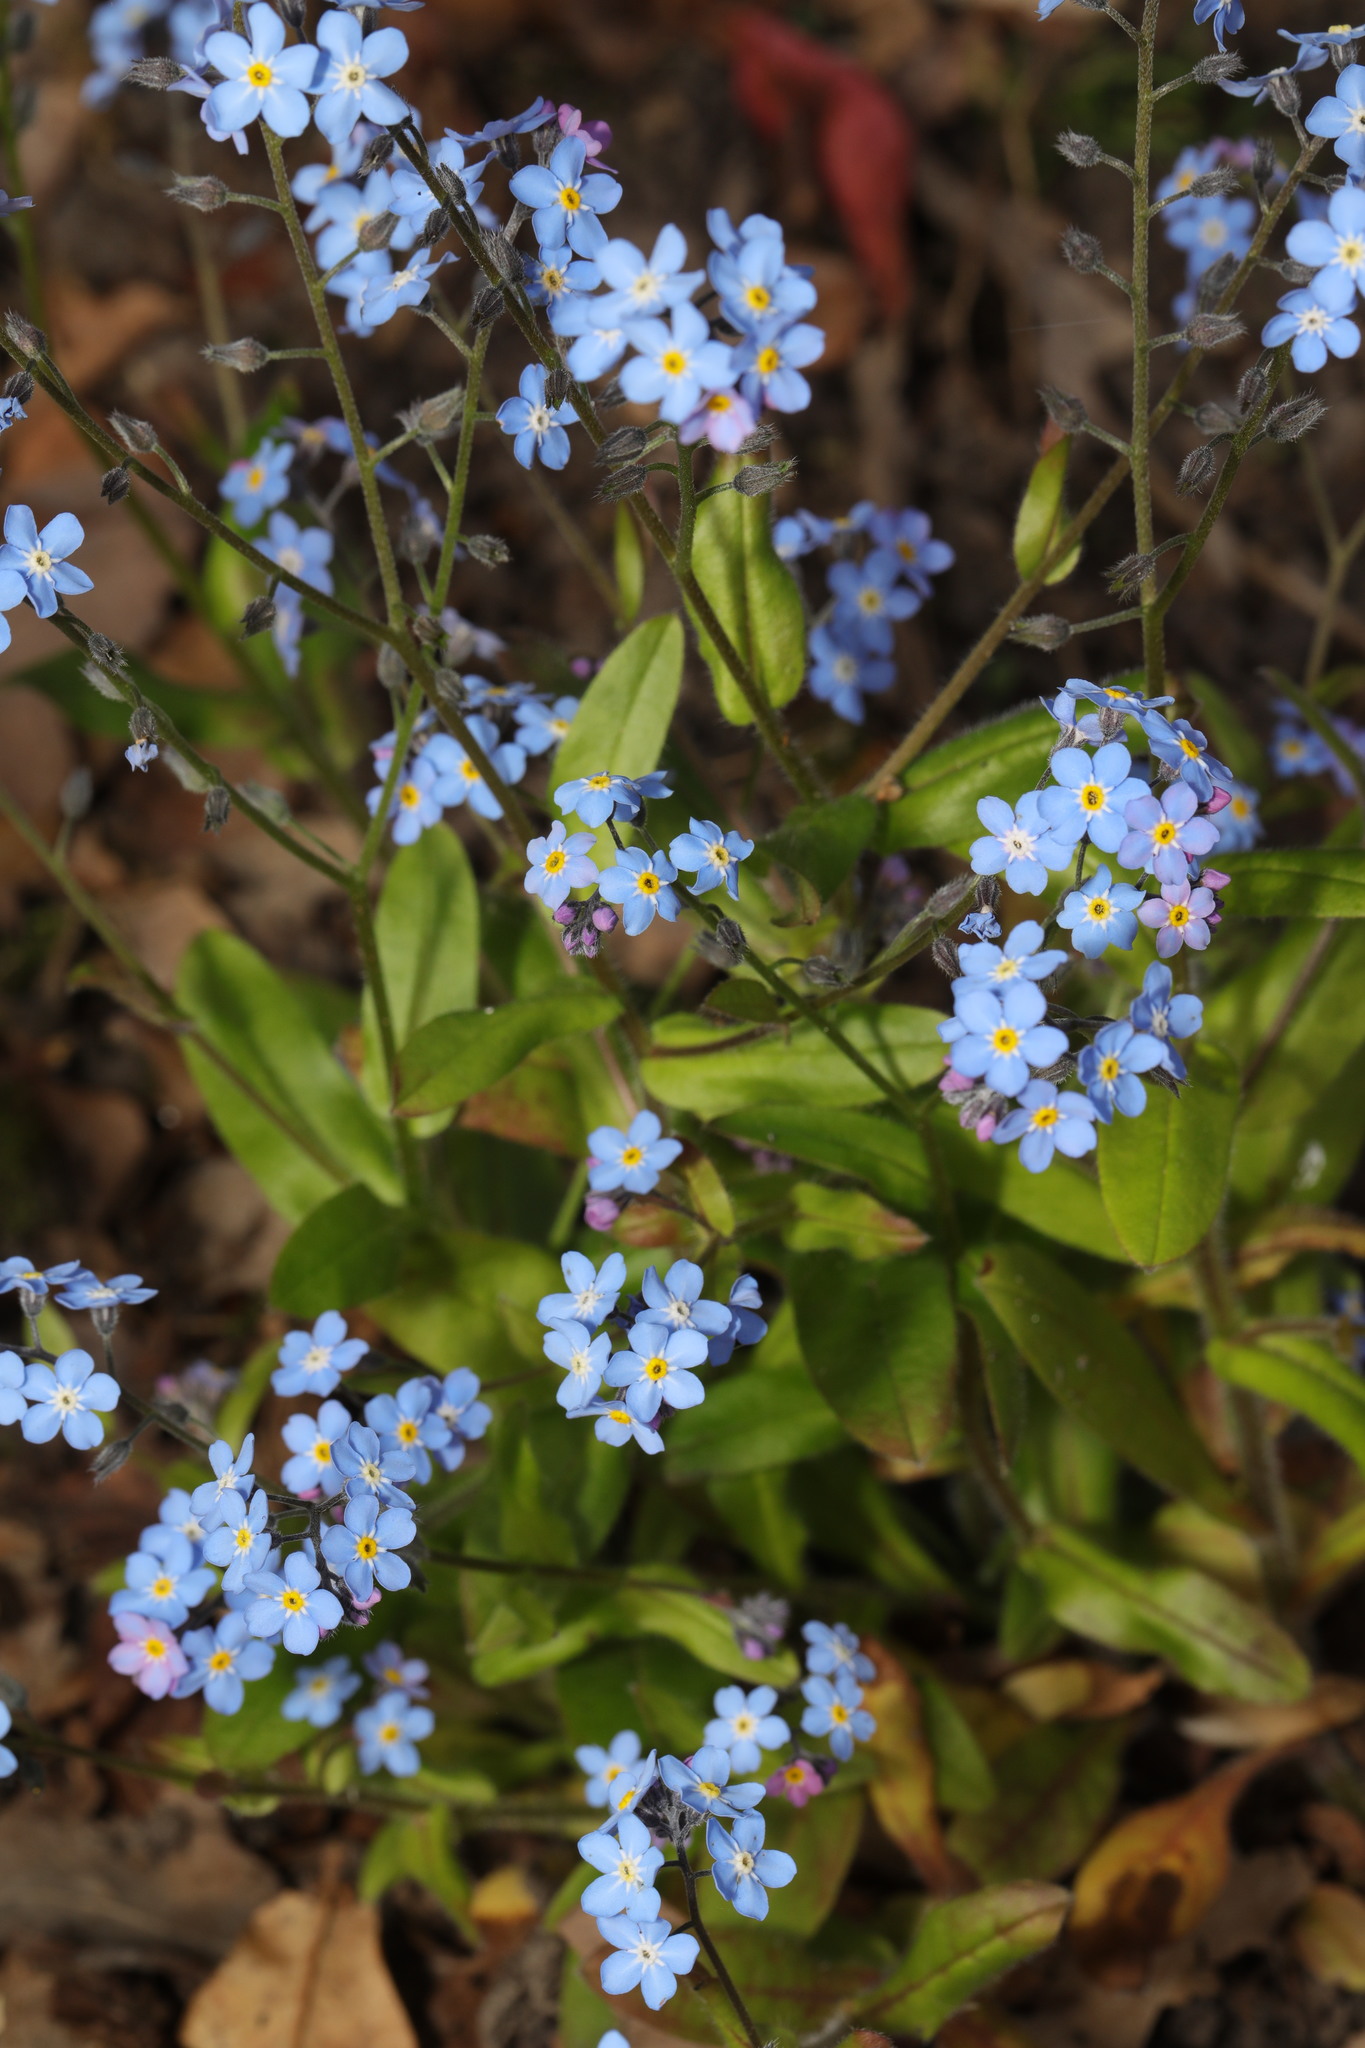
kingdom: Plantae
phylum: Tracheophyta
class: Magnoliopsida
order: Boraginales
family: Boraginaceae
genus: Myosotis
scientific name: Myosotis sylvatica
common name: Wood forget-me-not
